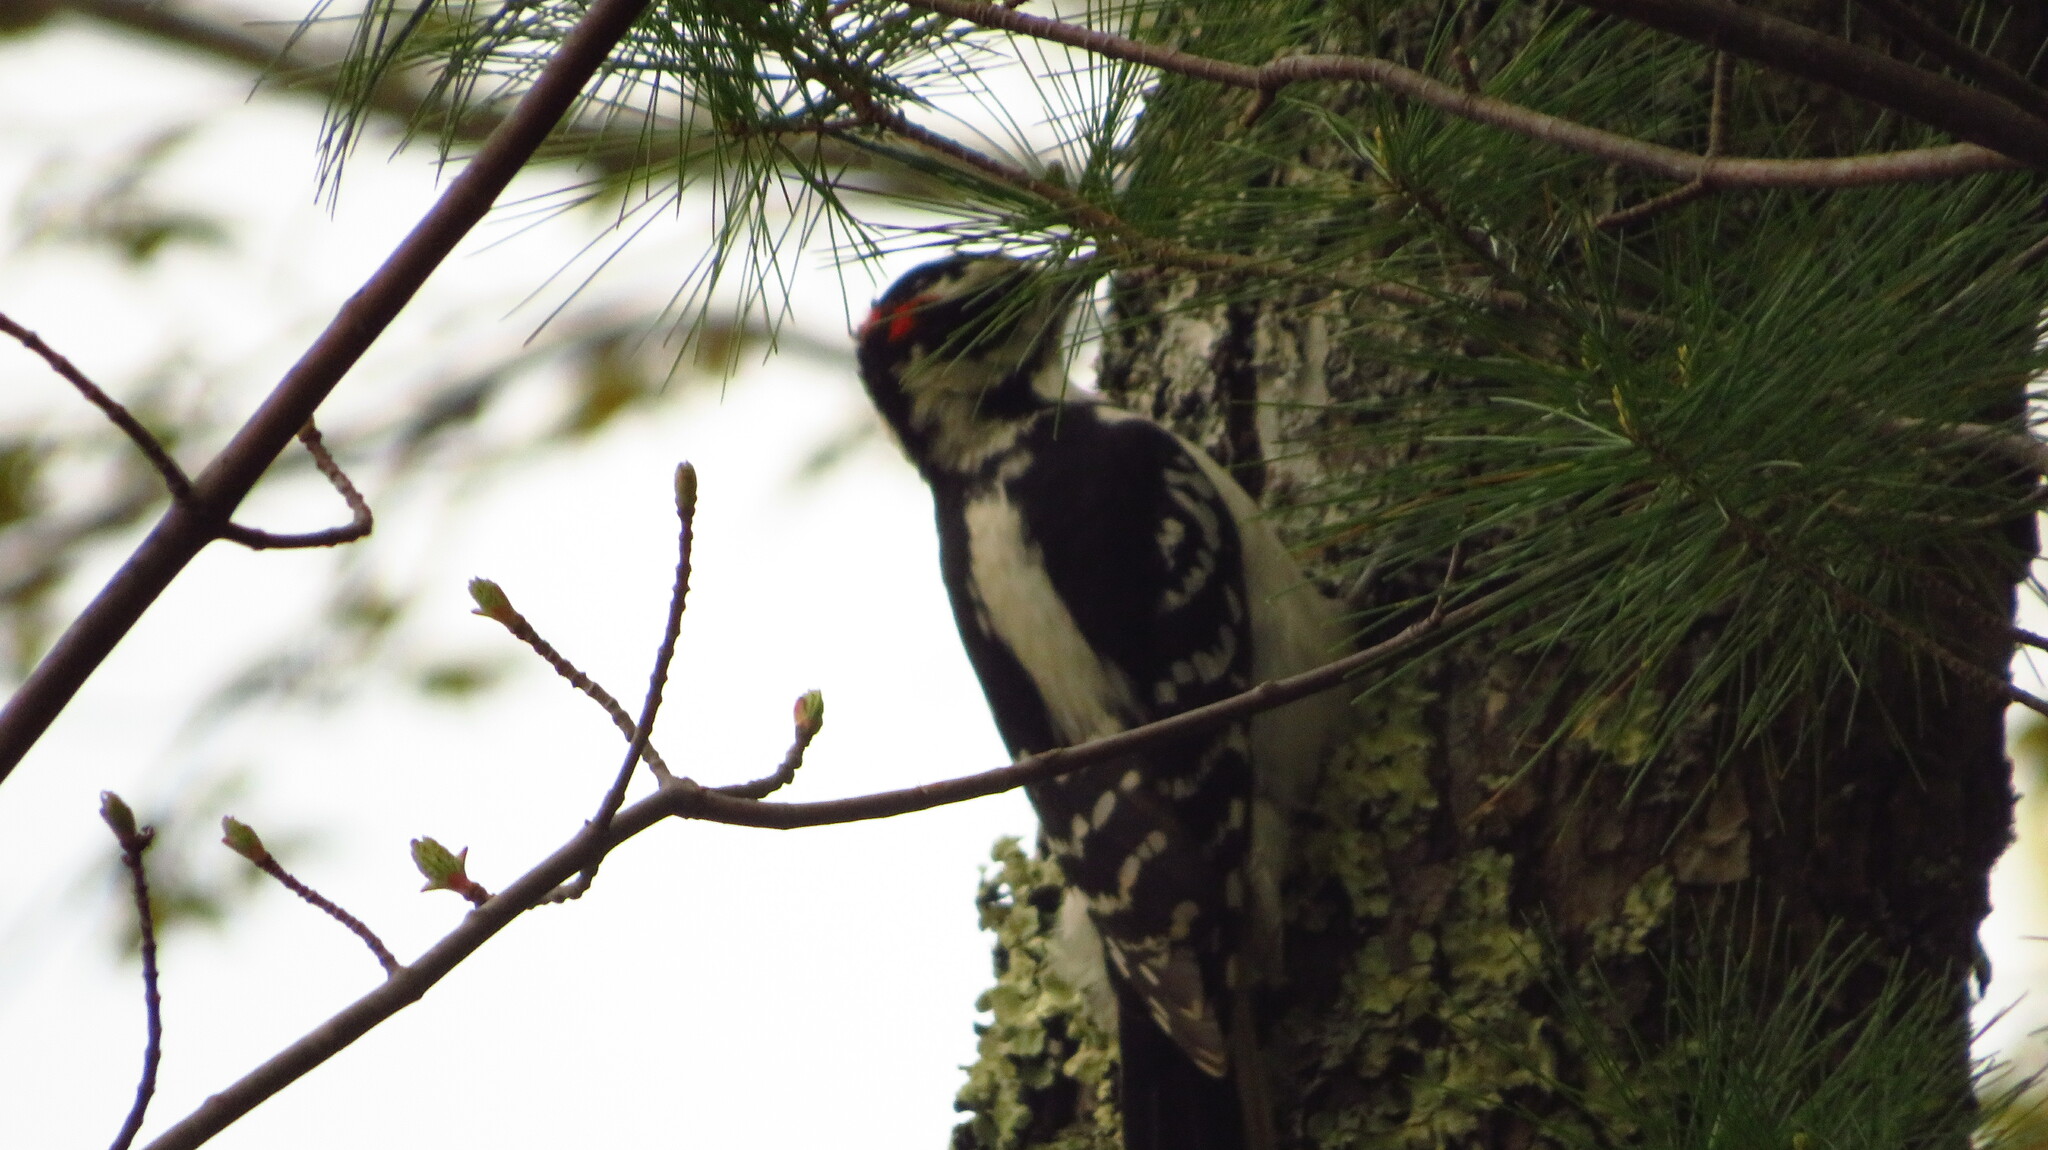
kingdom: Animalia
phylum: Chordata
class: Aves
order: Piciformes
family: Picidae
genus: Leuconotopicus
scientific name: Leuconotopicus villosus
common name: Hairy woodpecker
